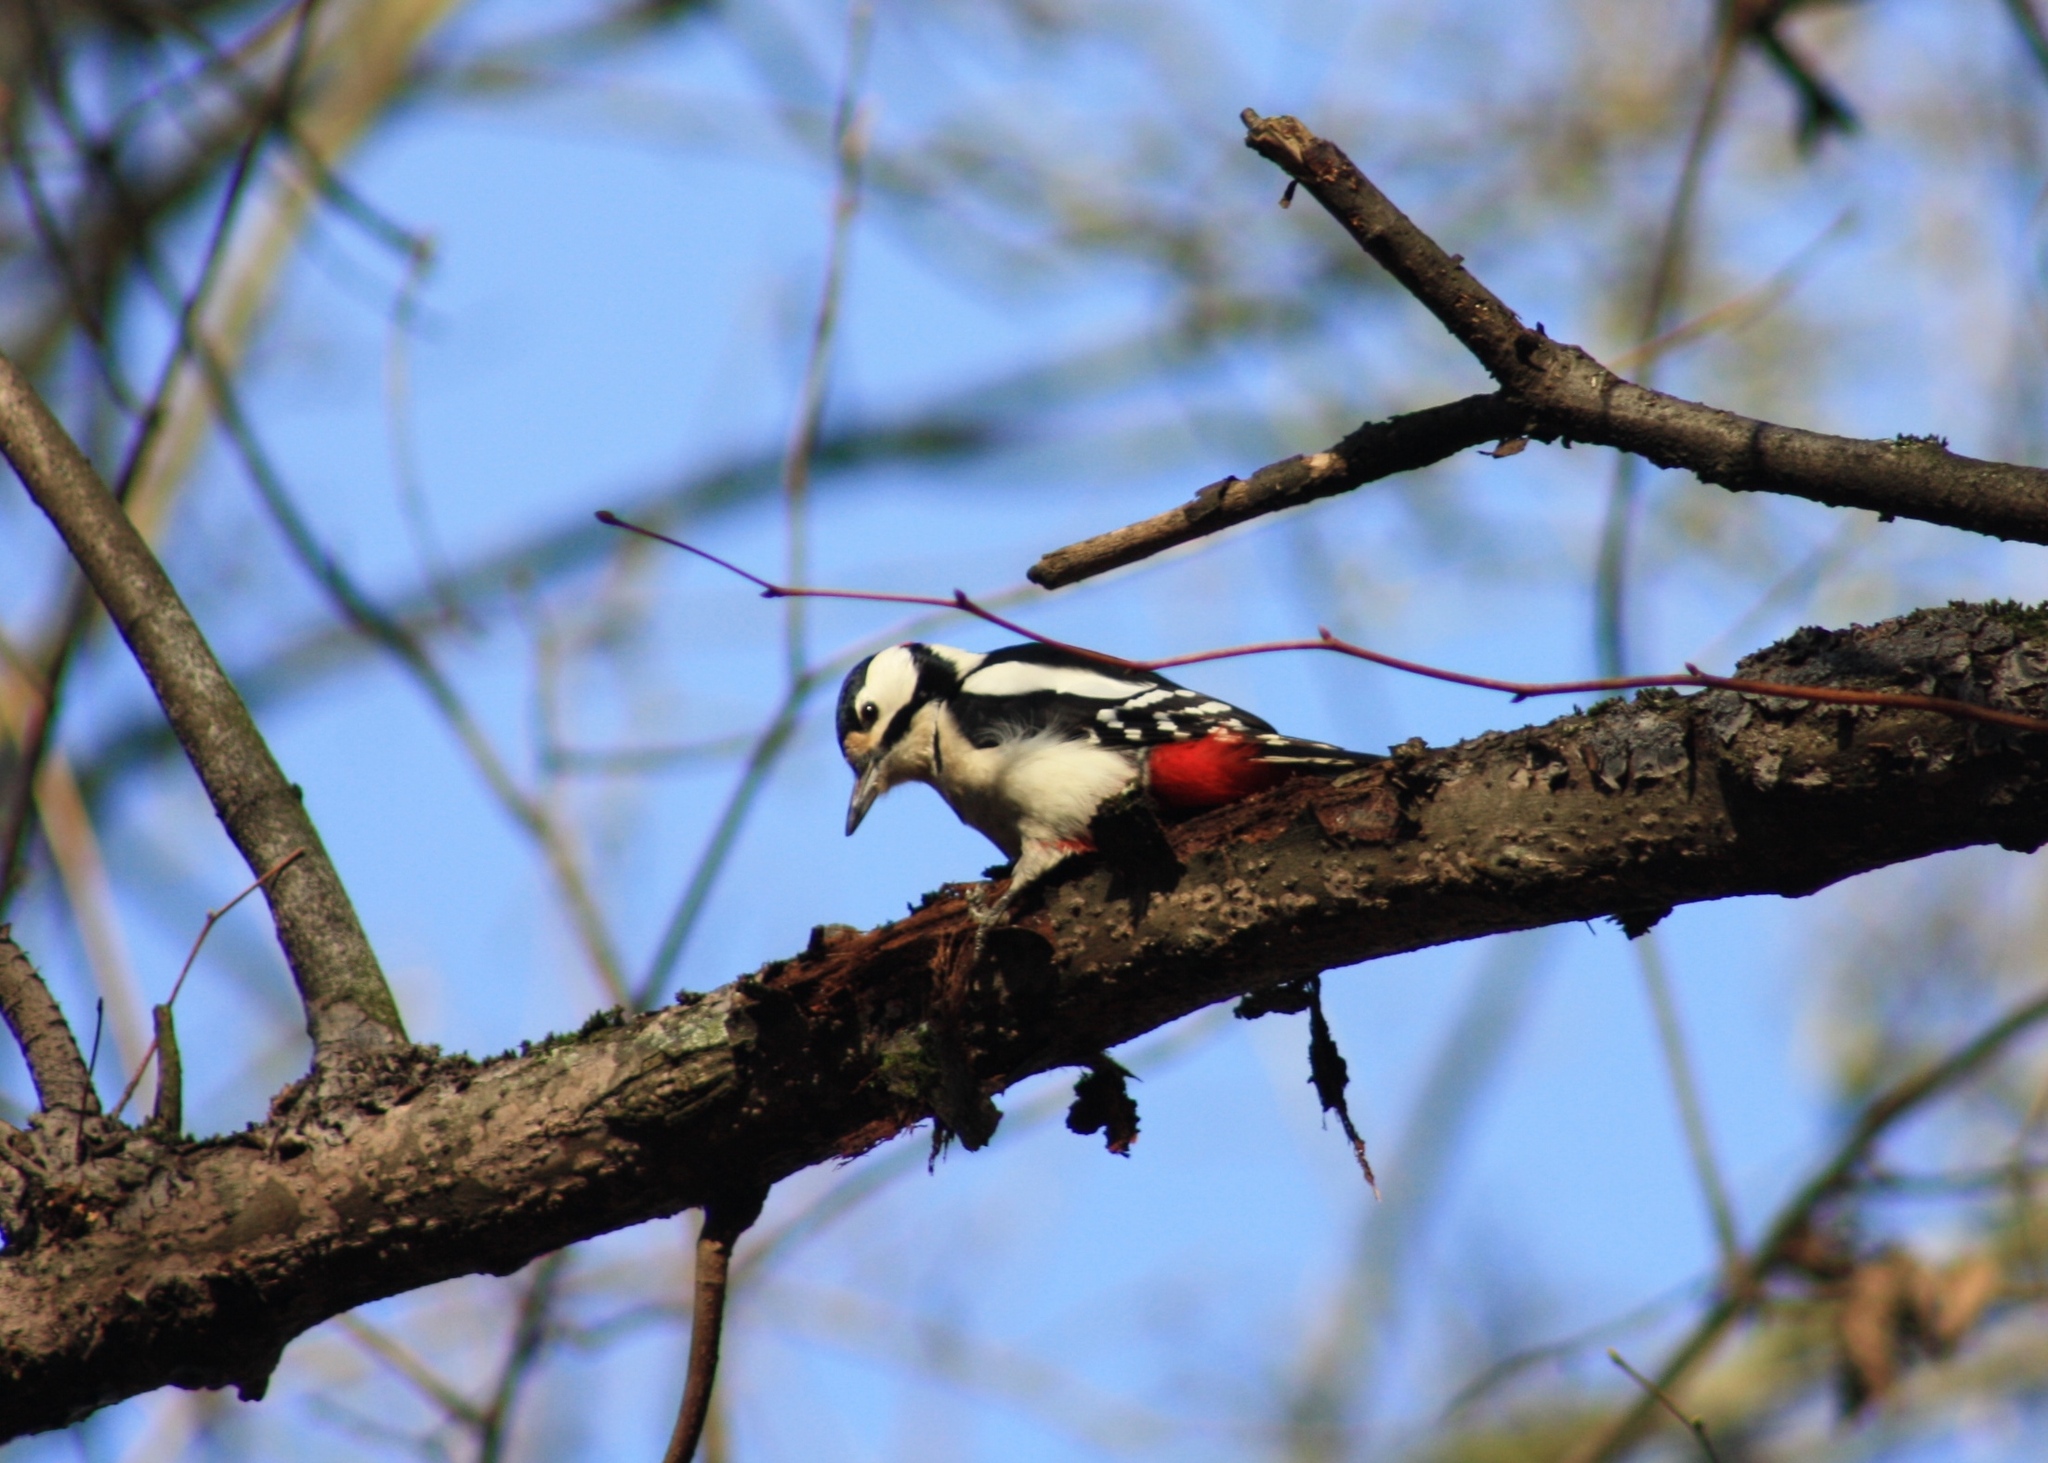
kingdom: Animalia
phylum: Chordata
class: Aves
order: Piciformes
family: Picidae
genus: Dendrocopos
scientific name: Dendrocopos major
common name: Great spotted woodpecker
